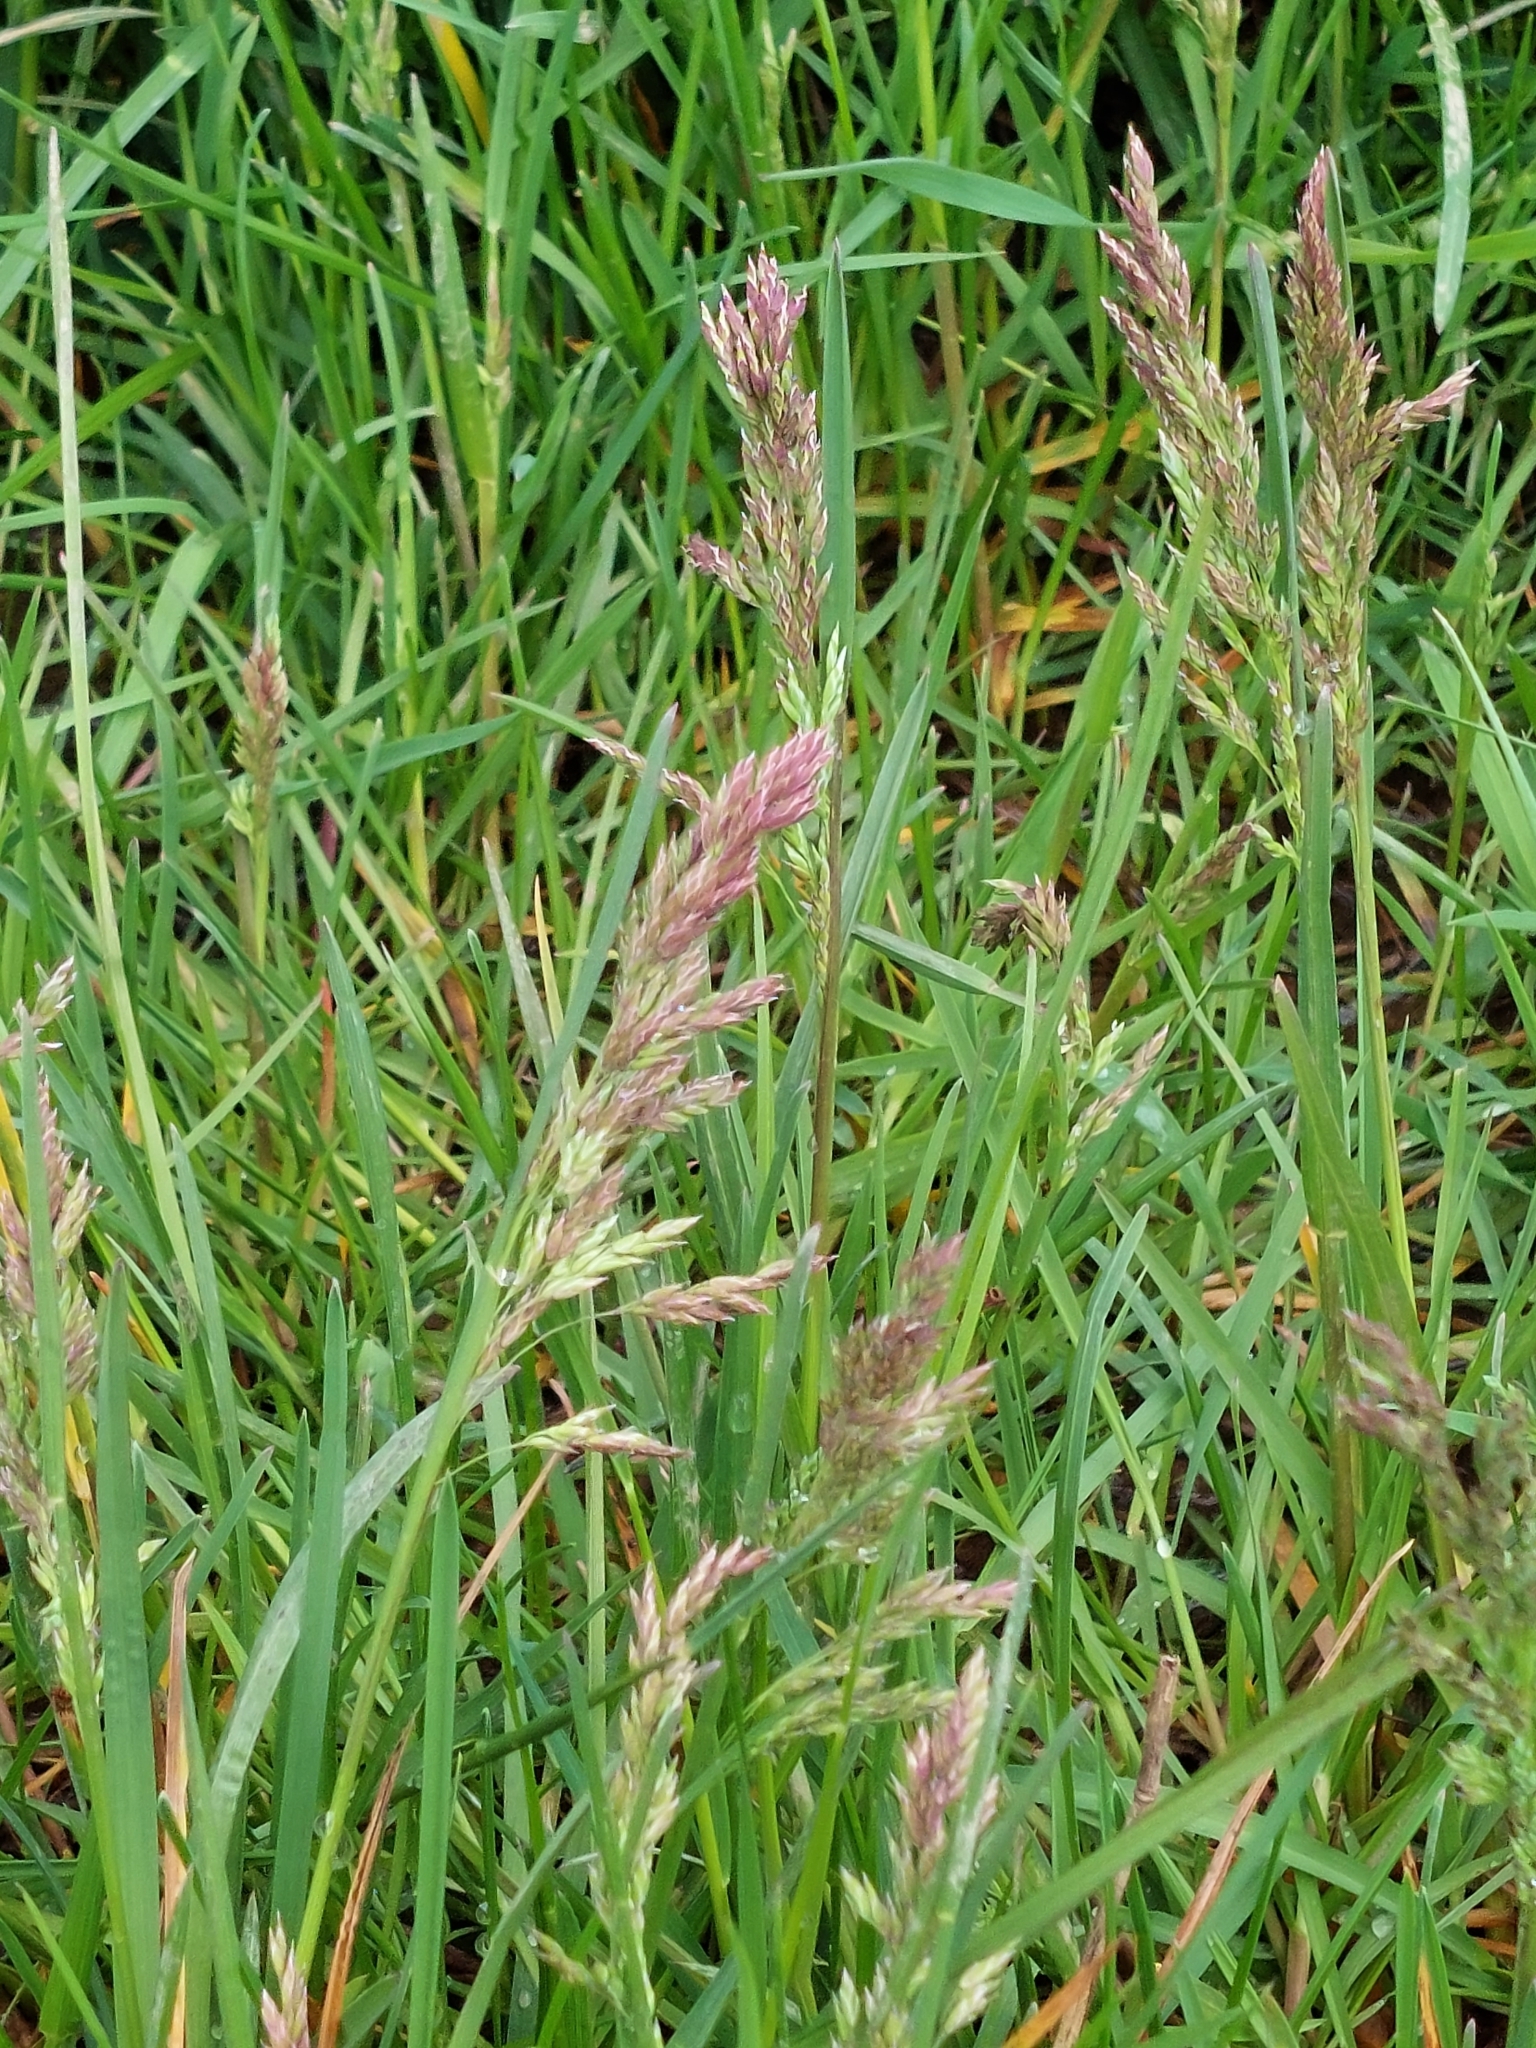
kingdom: Plantae
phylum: Tracheophyta
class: Liliopsida
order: Poales
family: Poaceae
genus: Holcus
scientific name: Holcus lanatus
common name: Yorkshire-fog
